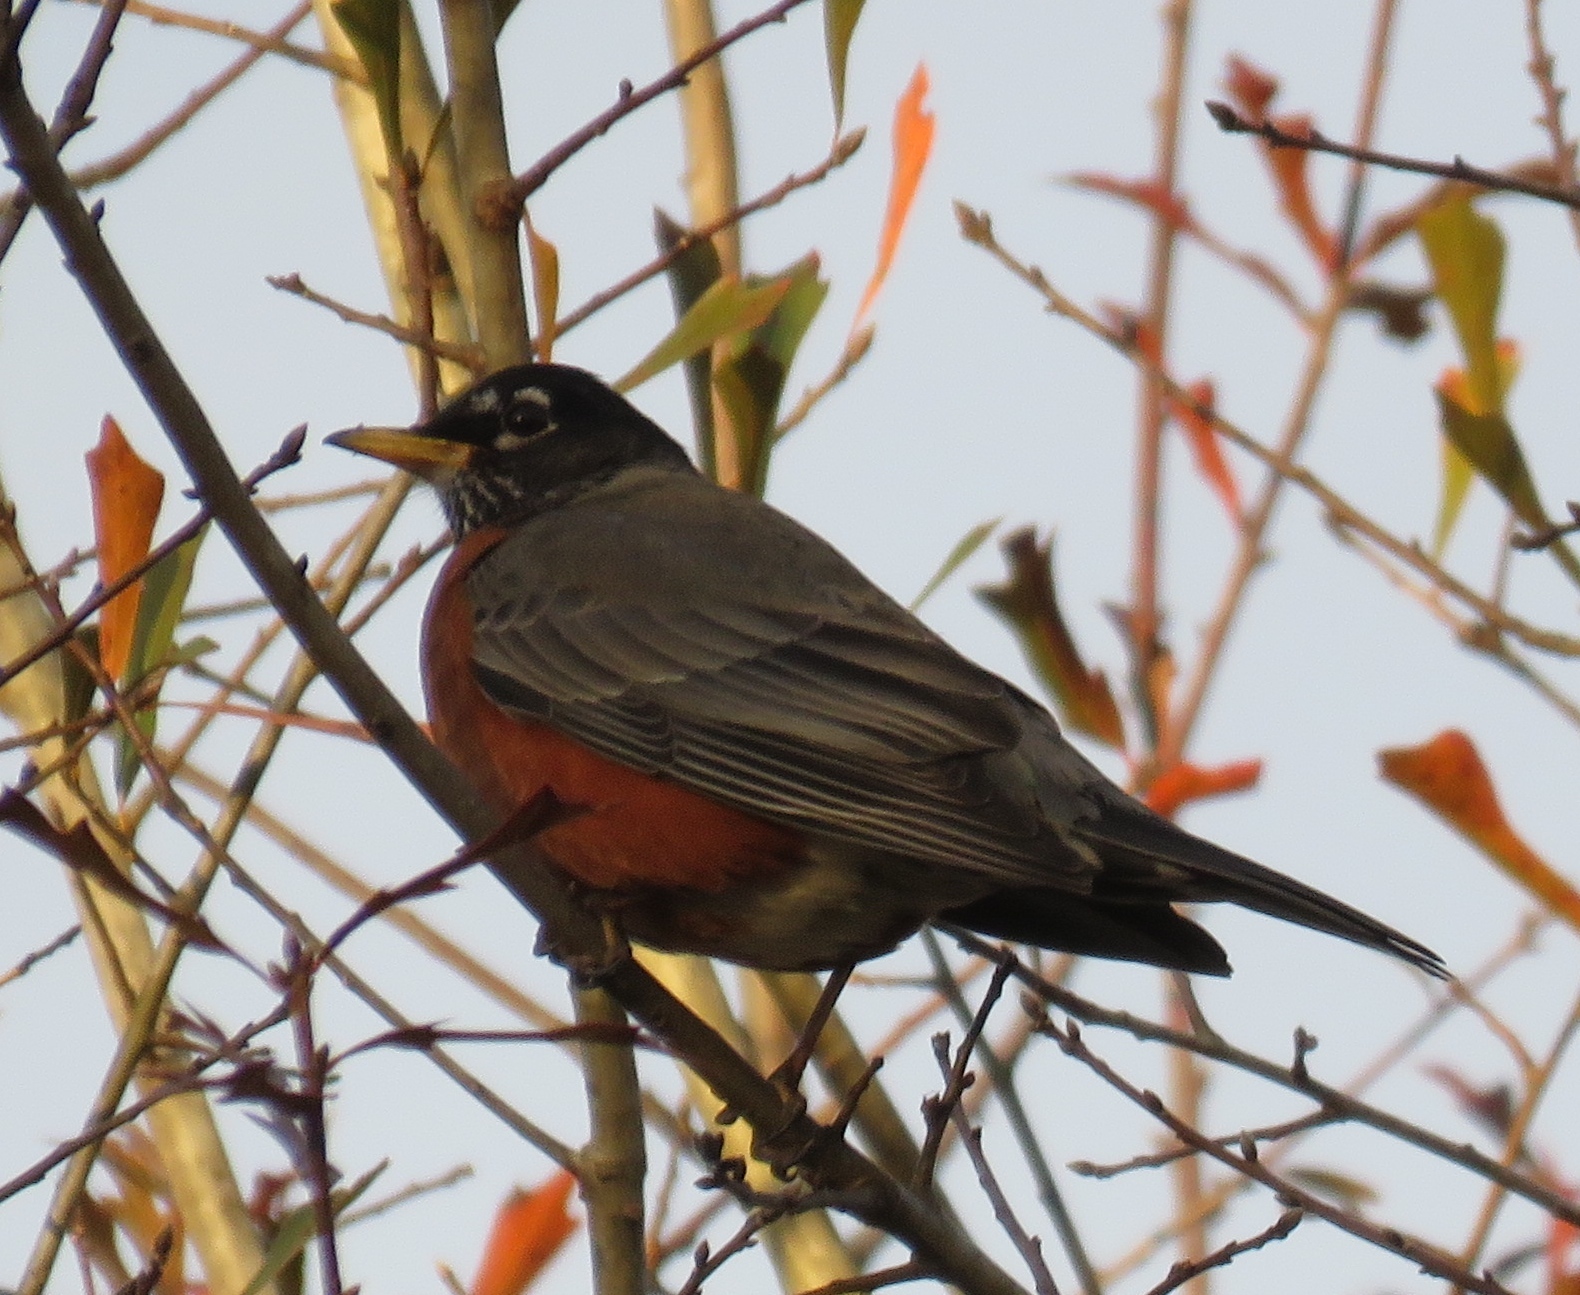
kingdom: Animalia
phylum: Chordata
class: Aves
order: Passeriformes
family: Turdidae
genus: Turdus
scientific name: Turdus migratorius
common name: American robin
